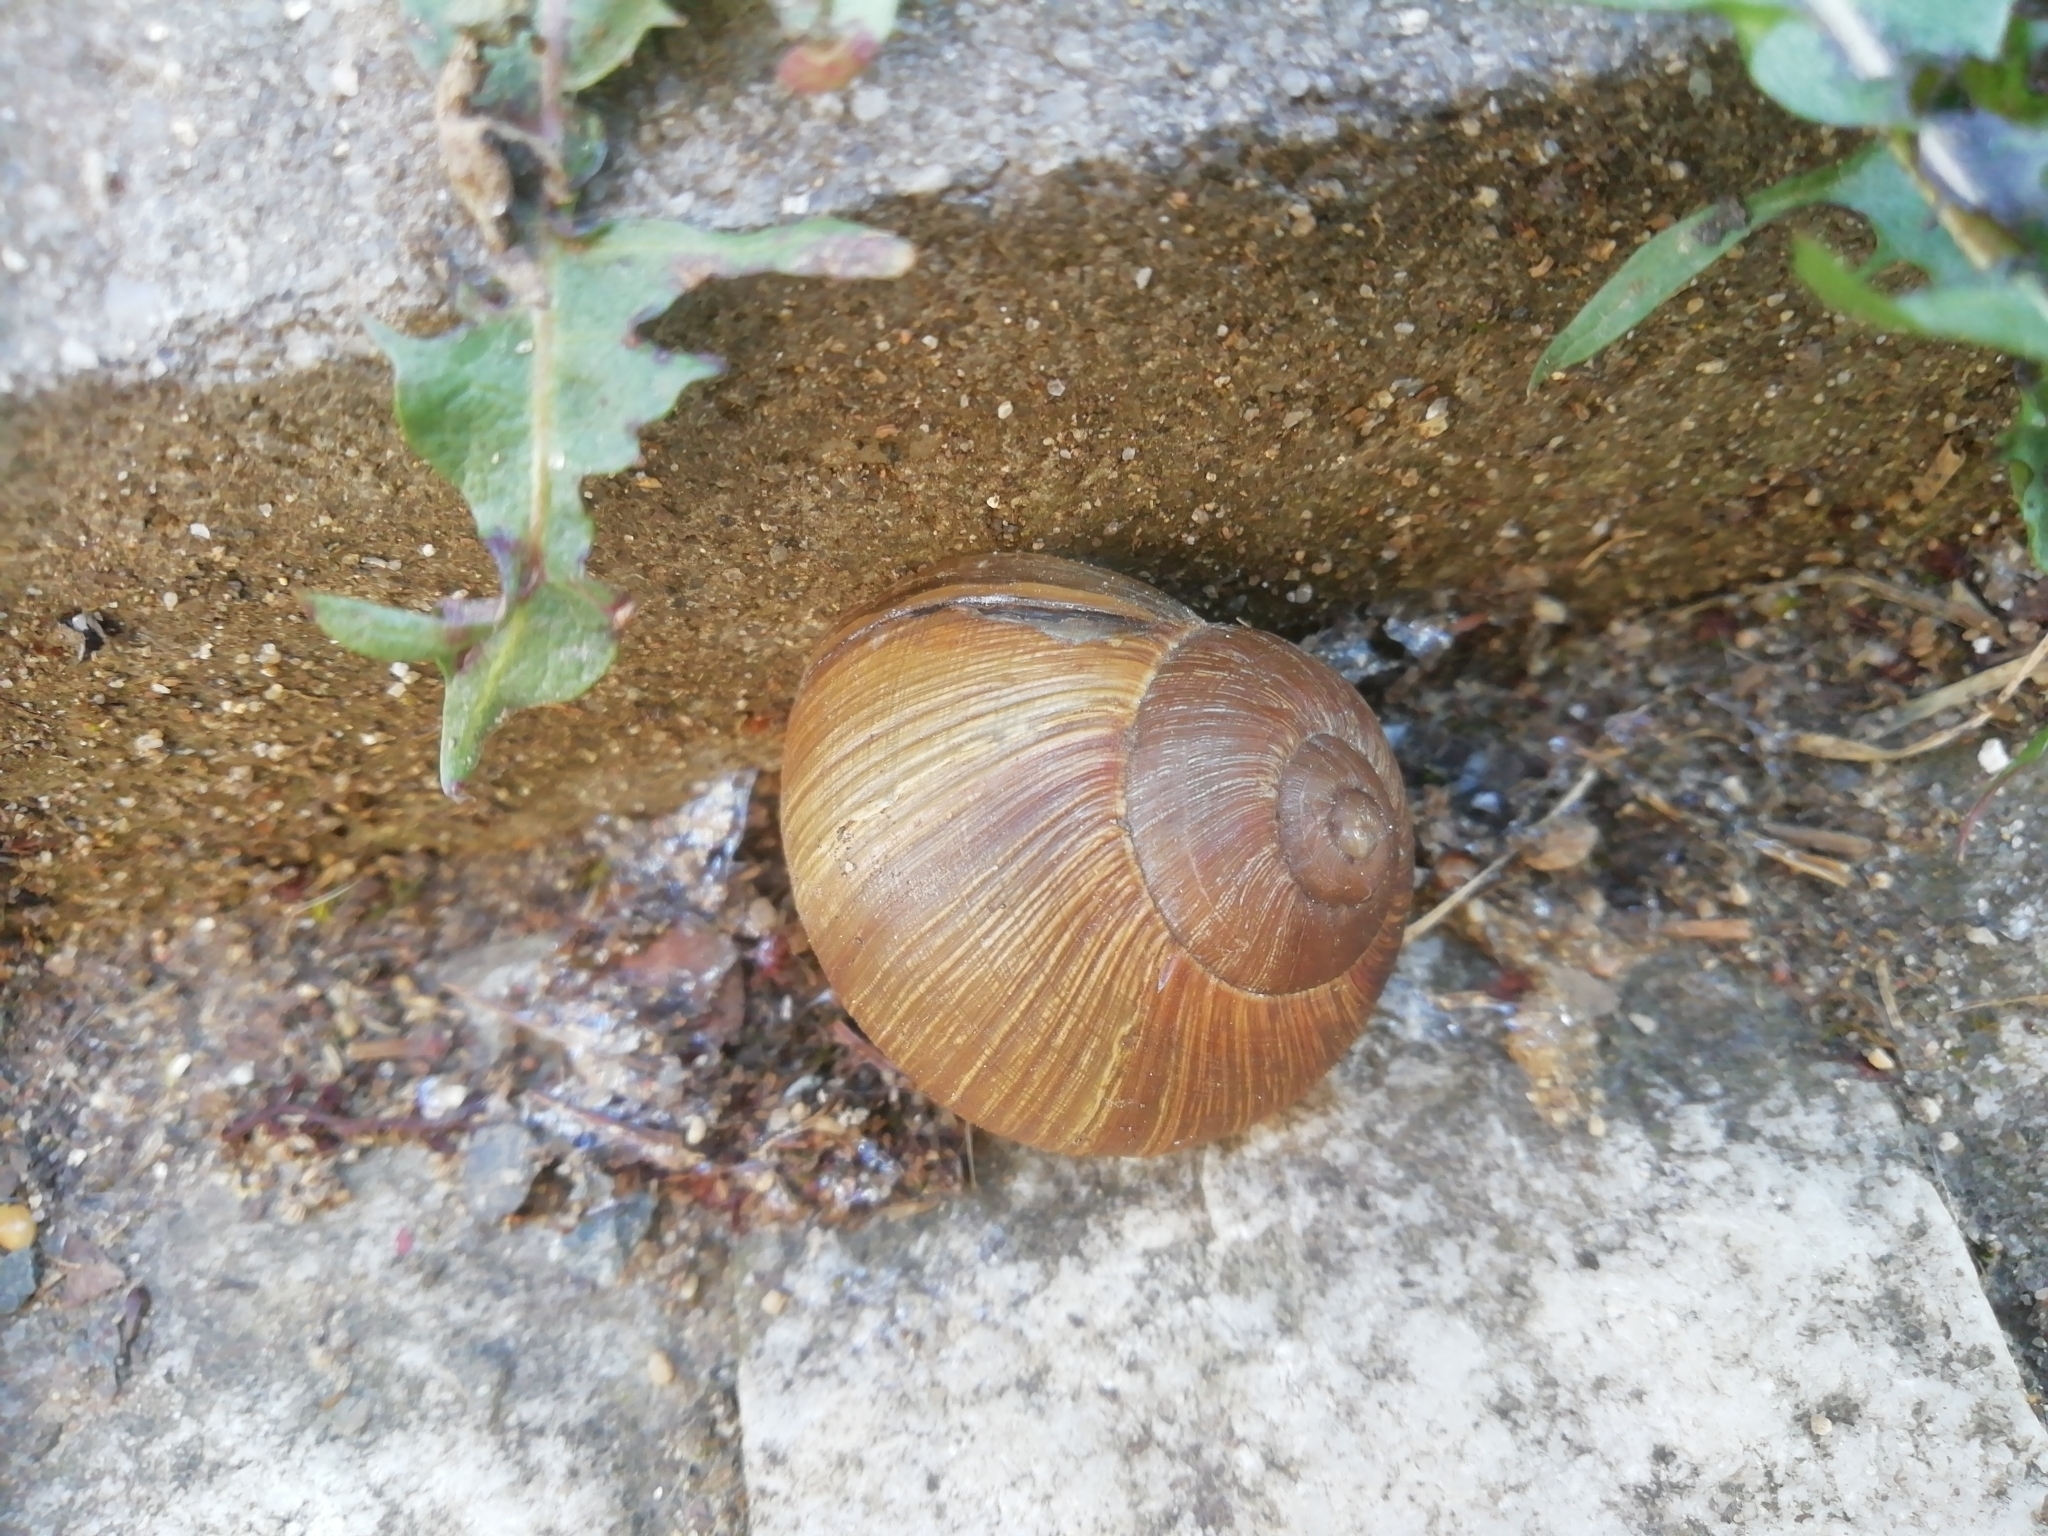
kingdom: Animalia
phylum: Mollusca
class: Gastropoda
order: Stylommatophora
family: Helicidae
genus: Helix
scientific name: Helix pomatia
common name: Roman snail
